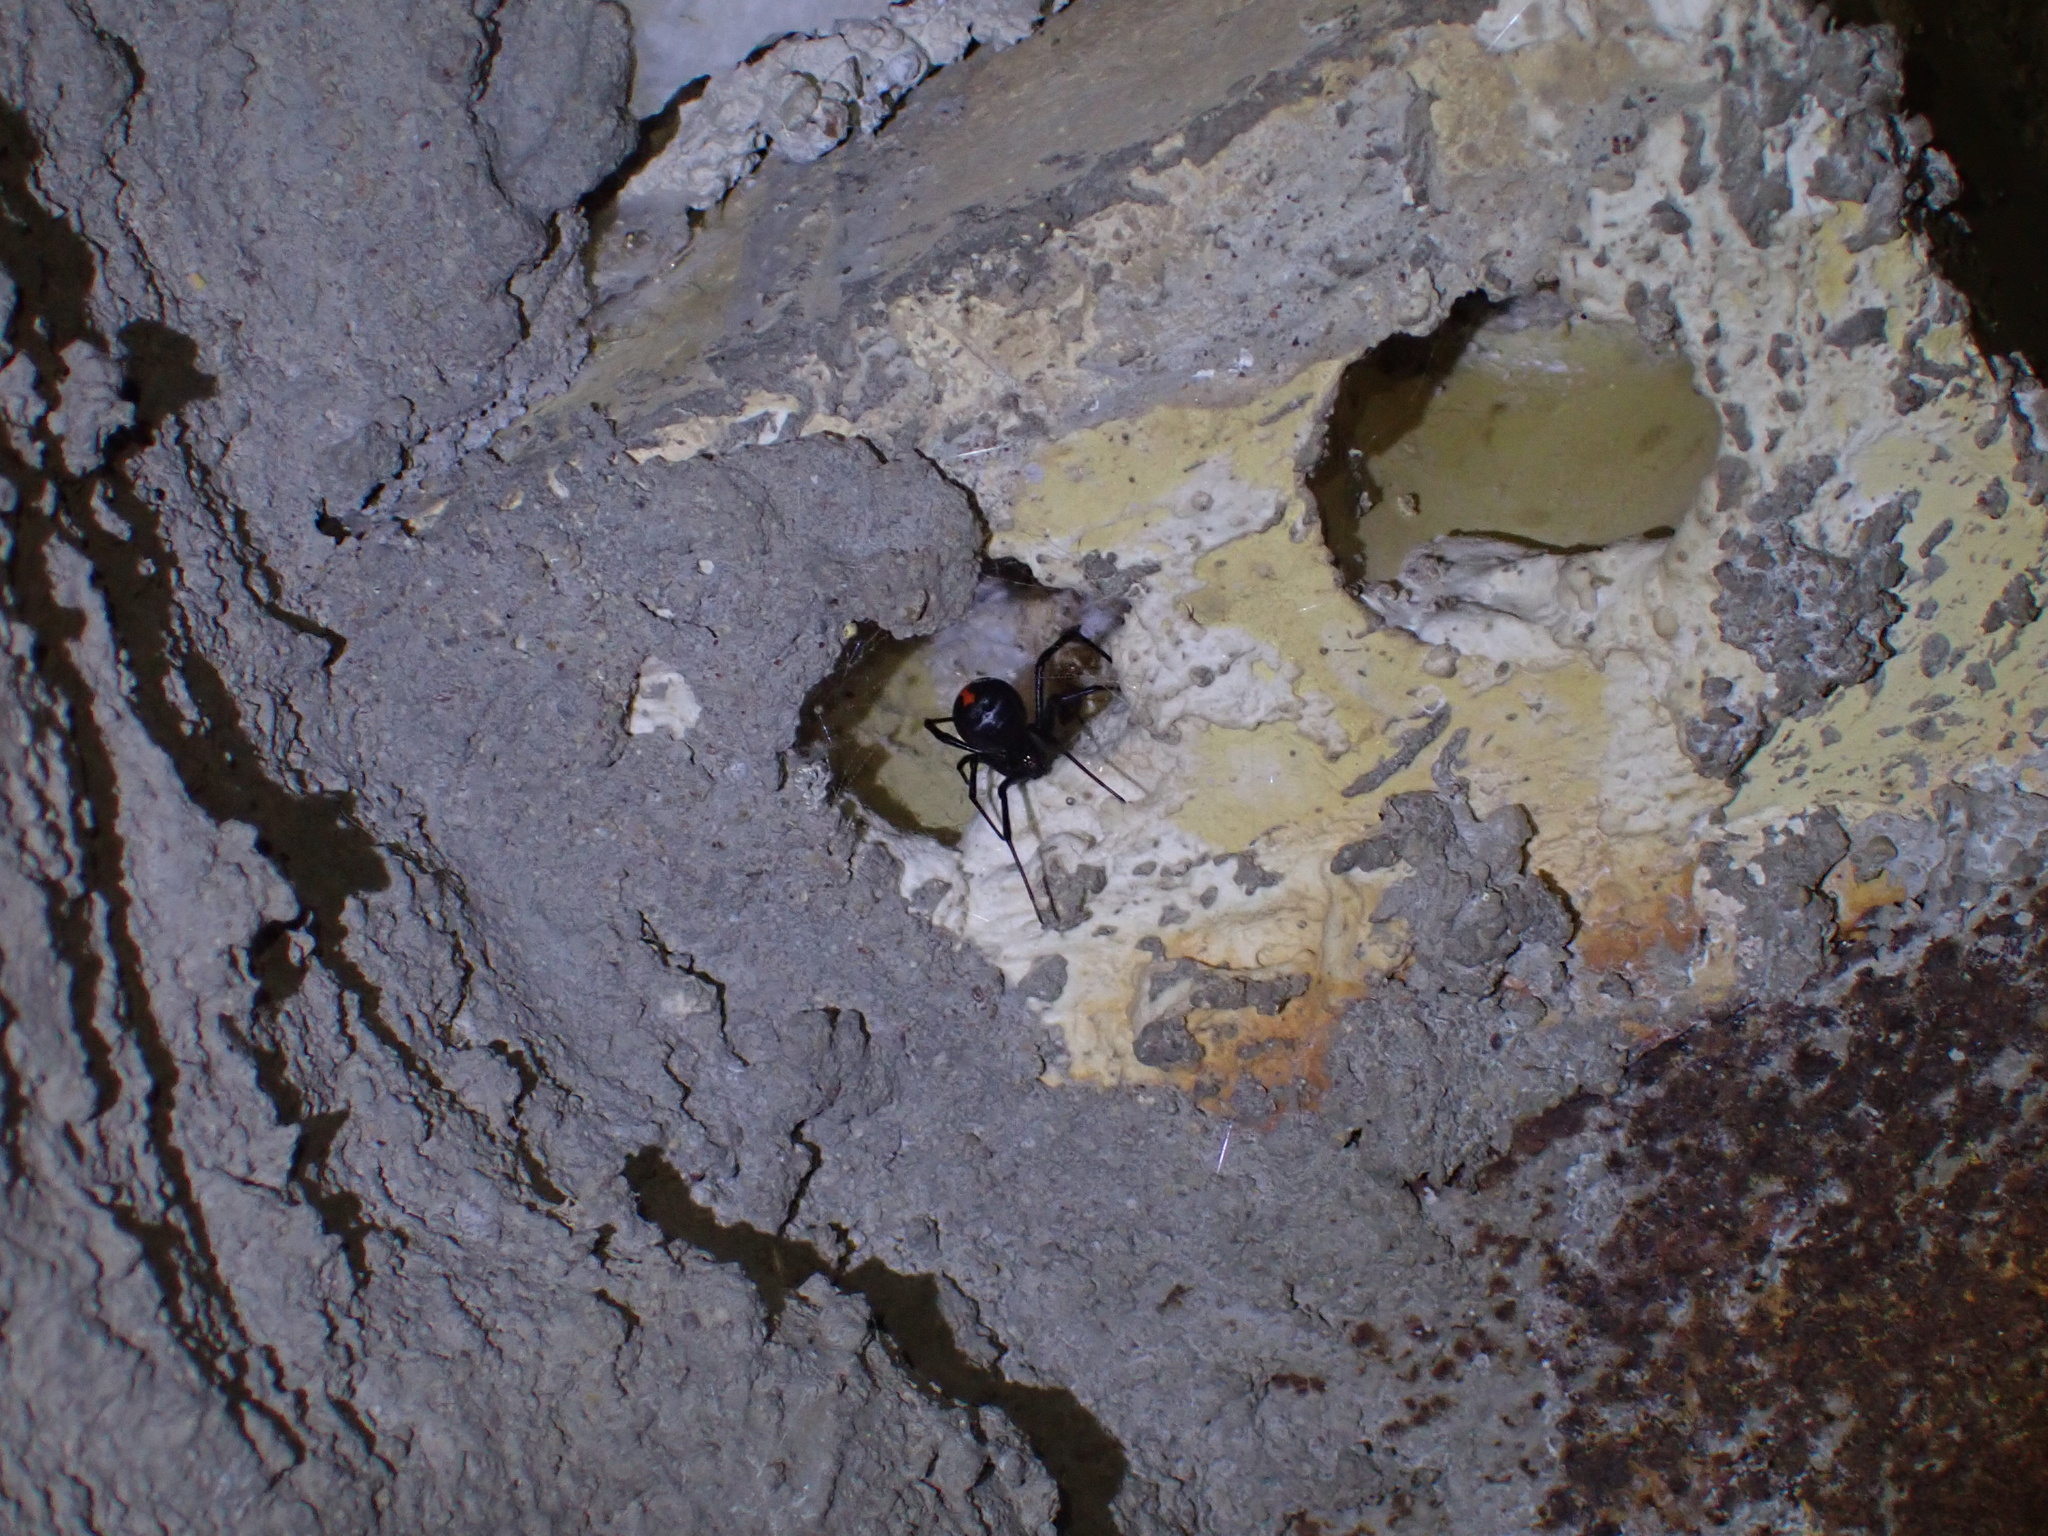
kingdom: Animalia
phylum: Arthropoda
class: Arachnida
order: Araneae
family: Theridiidae
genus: Latrodectus
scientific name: Latrodectus cinctus
